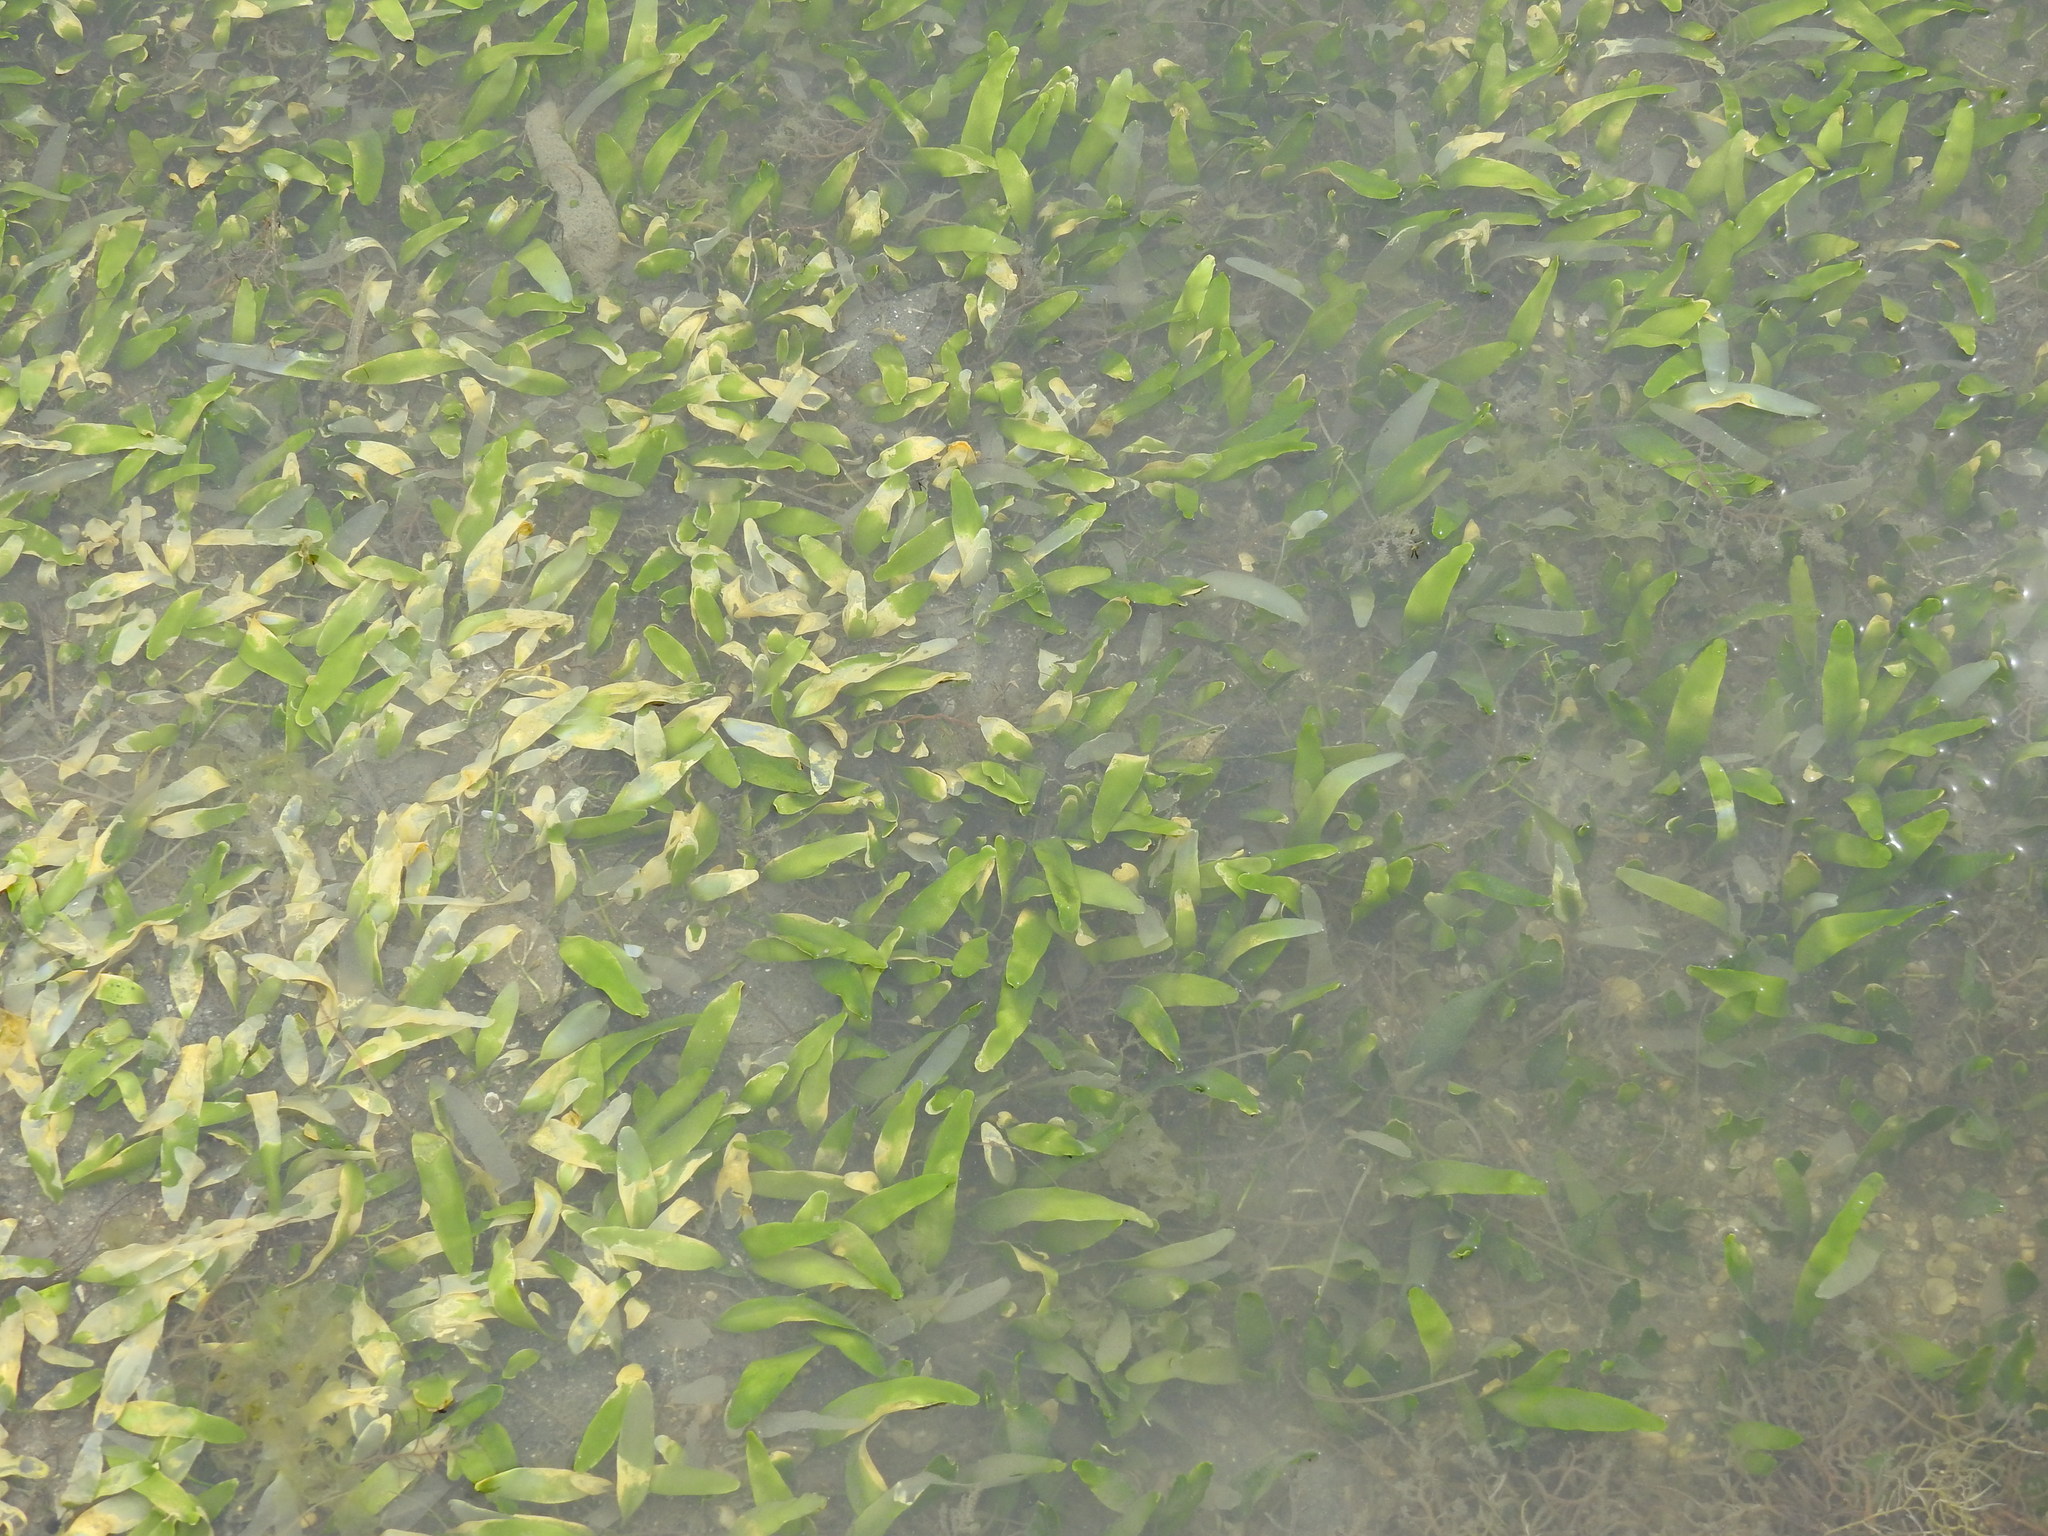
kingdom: Plantae
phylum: Chlorophyta
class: Ulvophyceae
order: Bryopsidales
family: Caulerpaceae
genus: Caulerpa
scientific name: Caulerpa prolifera
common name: Oval-blade algae
